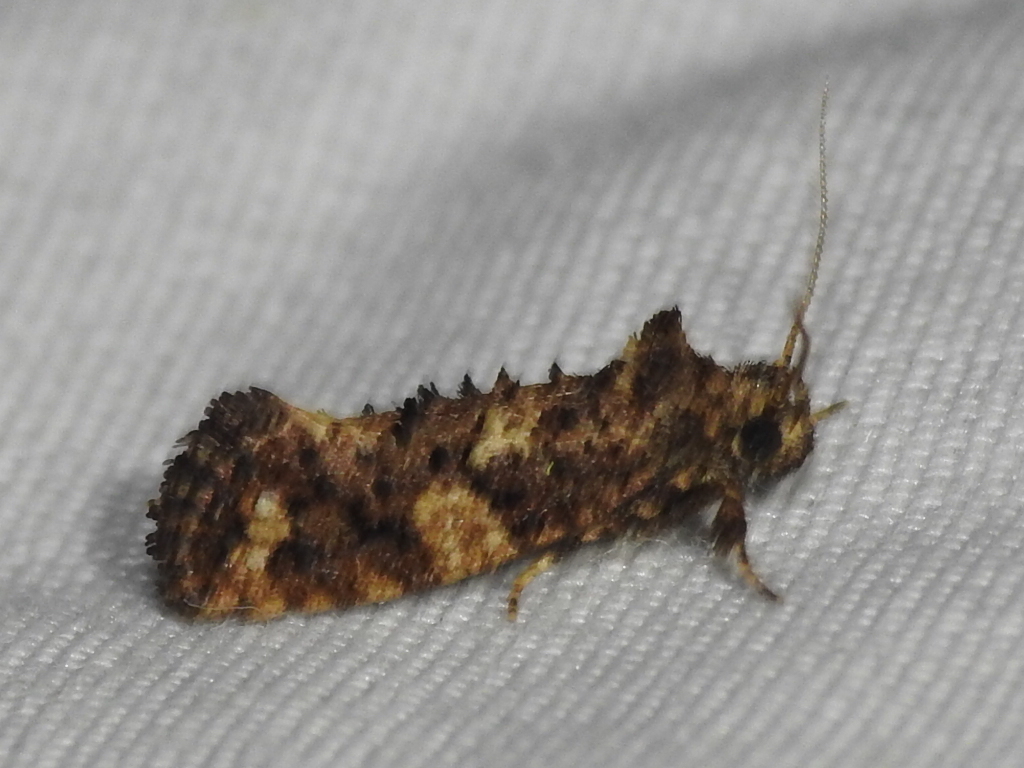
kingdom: Animalia
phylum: Arthropoda
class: Insecta
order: Lepidoptera
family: Tineidae
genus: Acrolophus
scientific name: Acrolophus cressoni
